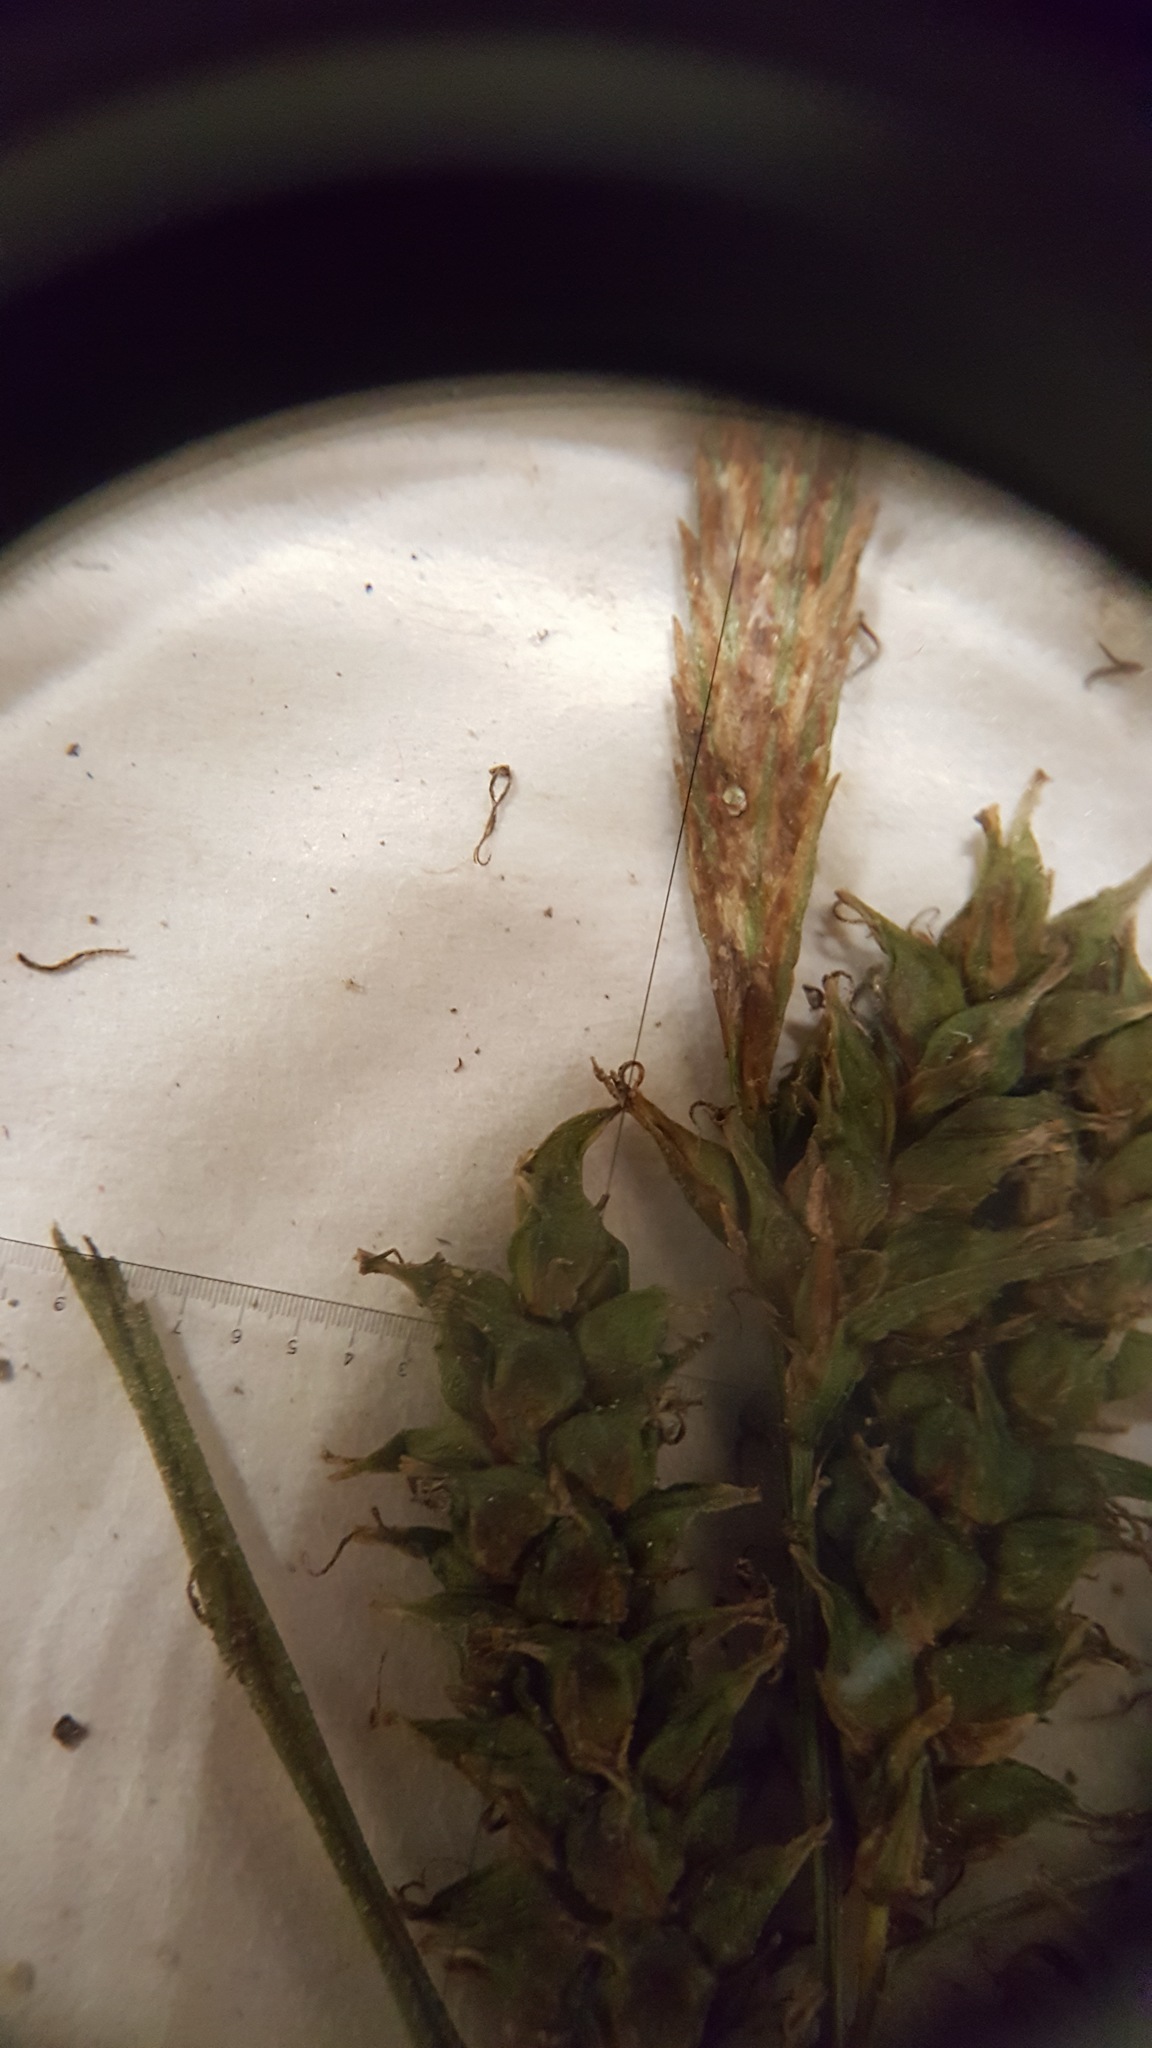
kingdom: Plantae
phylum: Tracheophyta
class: Liliopsida
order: Poales
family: Cyperaceae
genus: Carex
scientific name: Carex scabrata
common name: Eastern rough sedge
